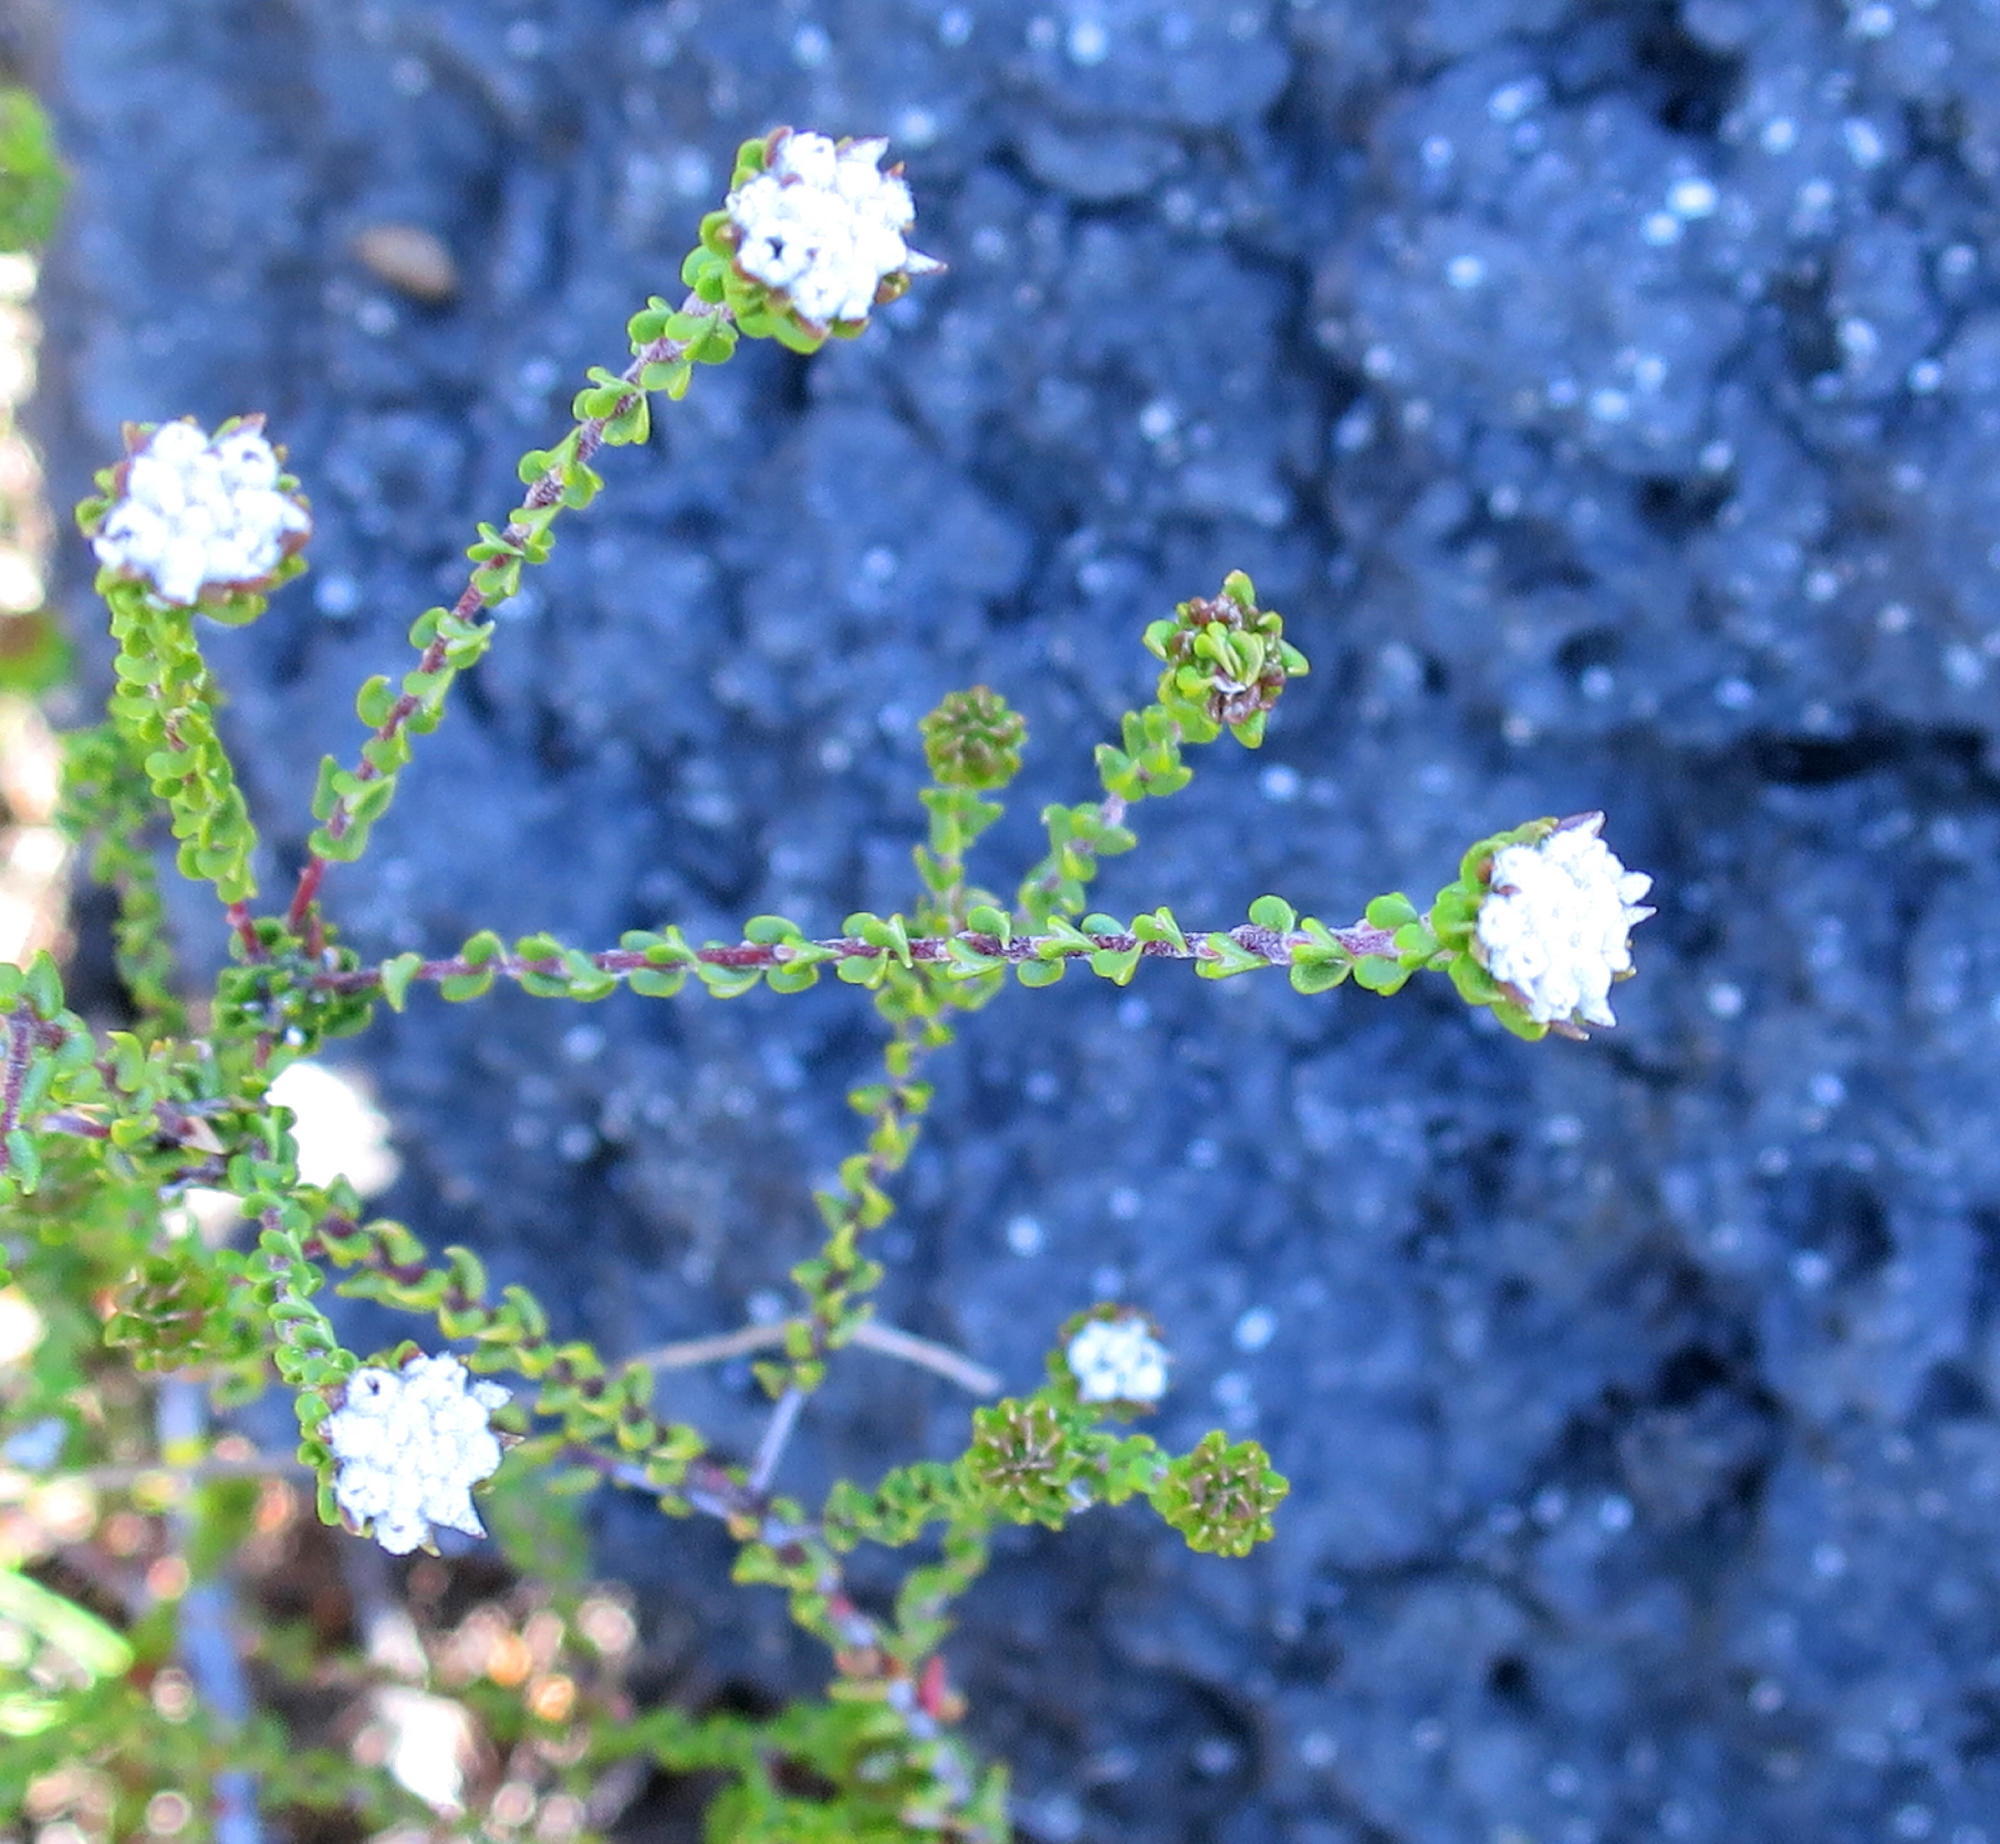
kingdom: Plantae
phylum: Tracheophyta
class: Magnoliopsida
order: Rosales
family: Rhamnaceae
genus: Phylica
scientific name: Phylica debilis
